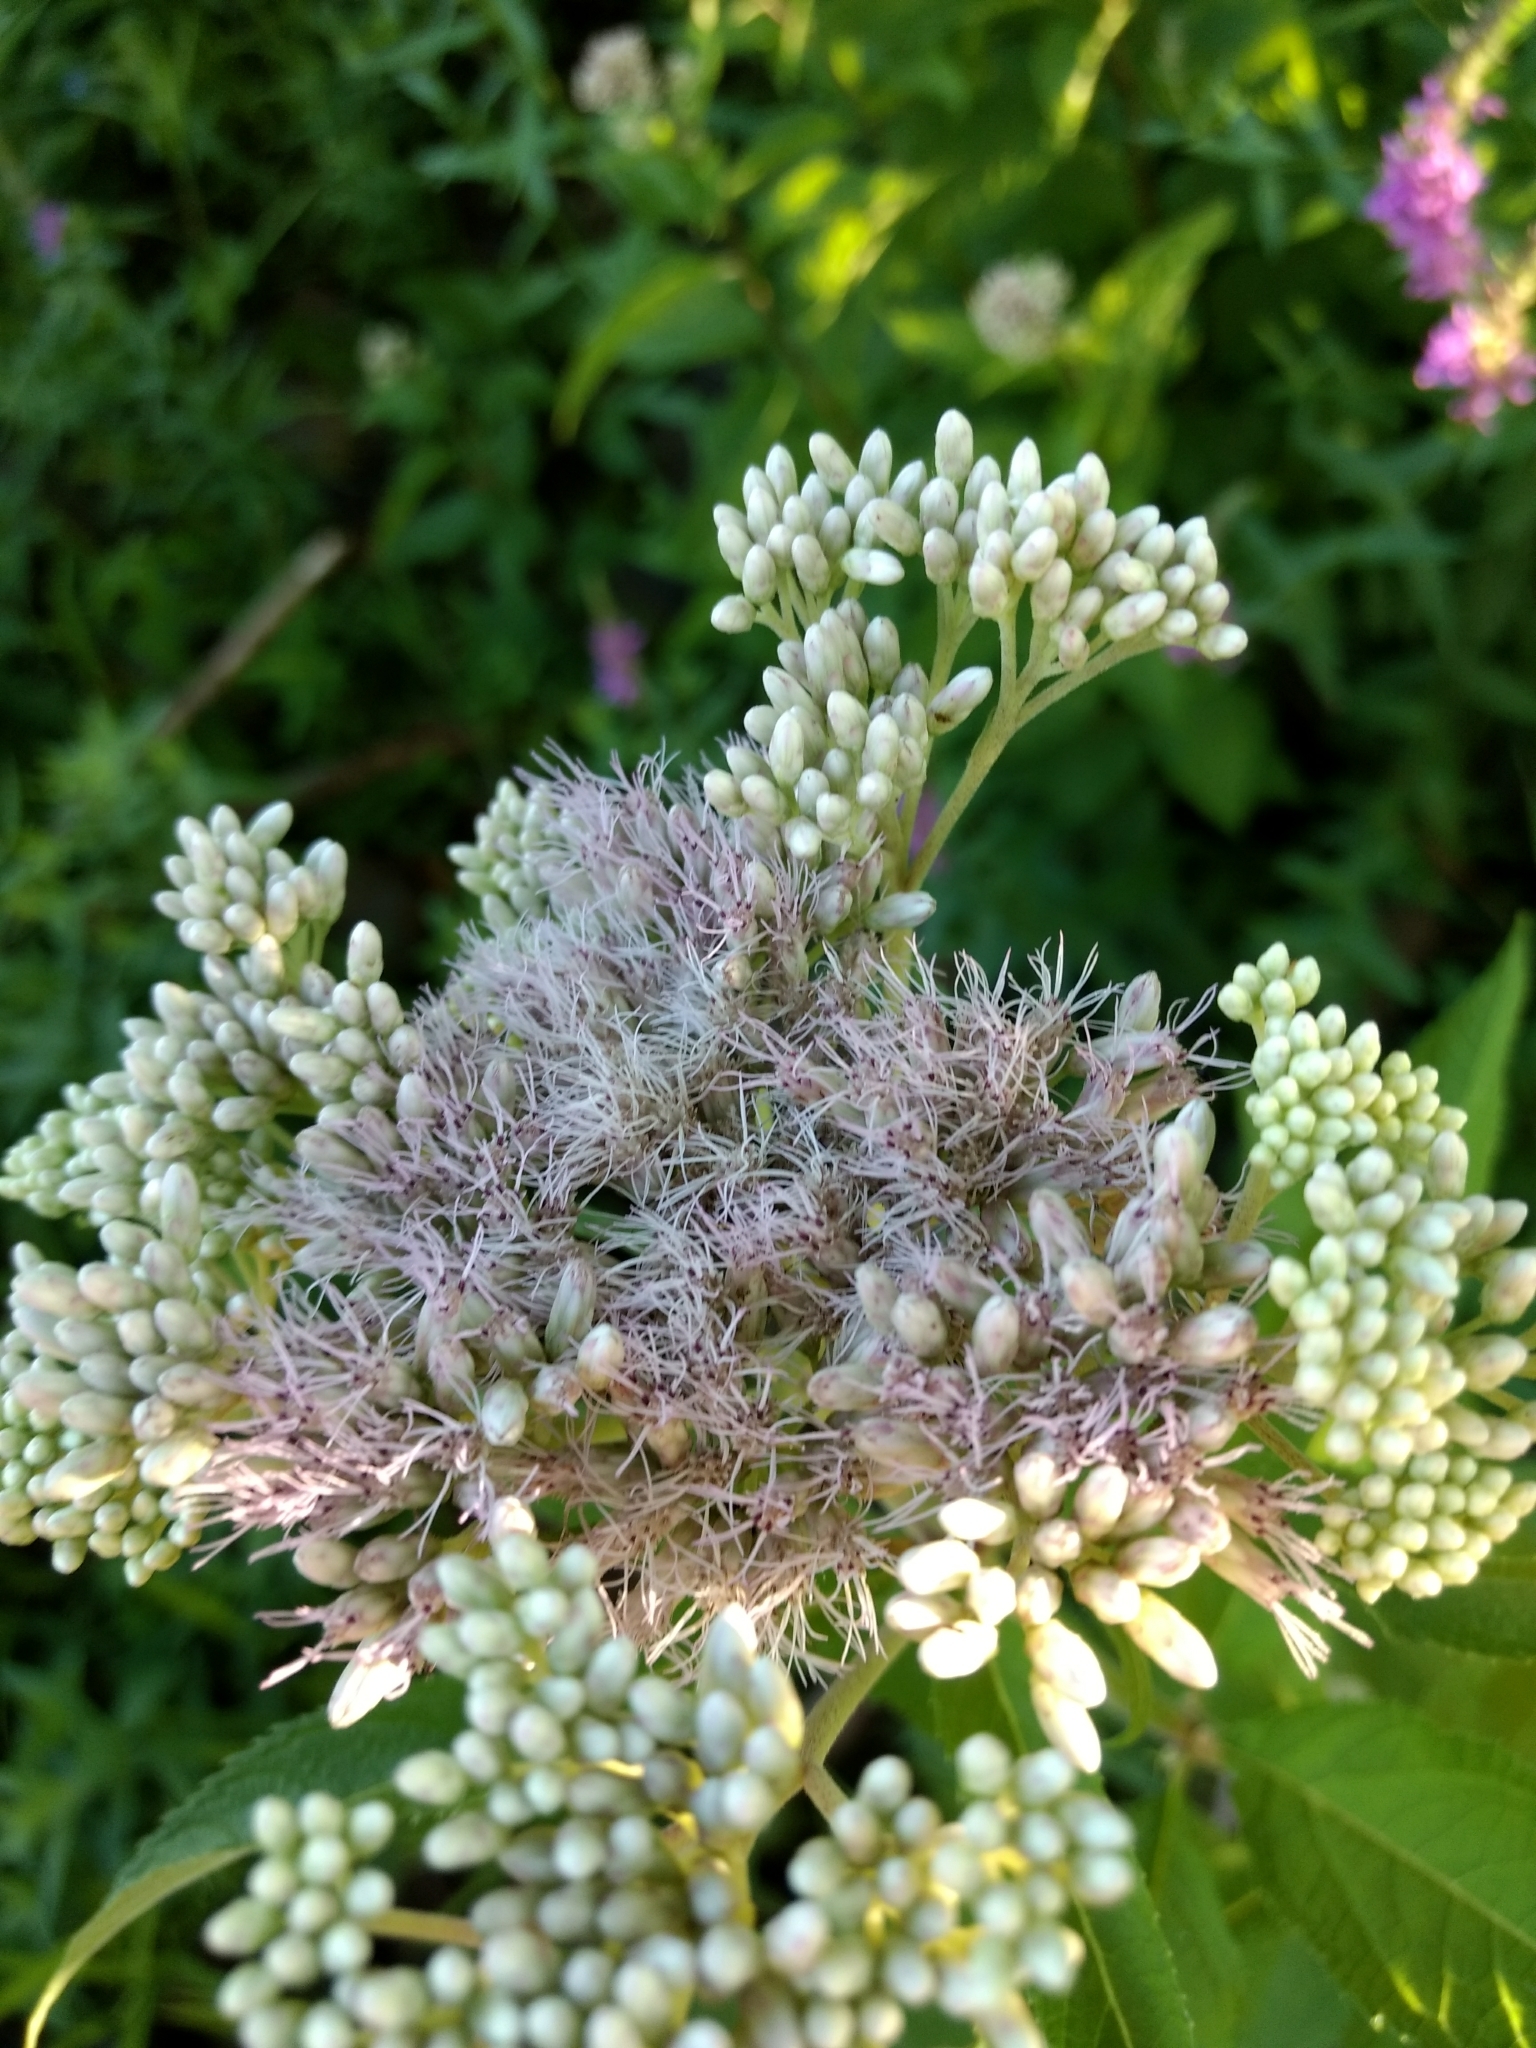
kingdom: Plantae
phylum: Tracheophyta
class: Magnoliopsida
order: Asterales
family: Asteraceae
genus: Eutrochium
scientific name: Eutrochium maculatum
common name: Spotted joe pye weed
